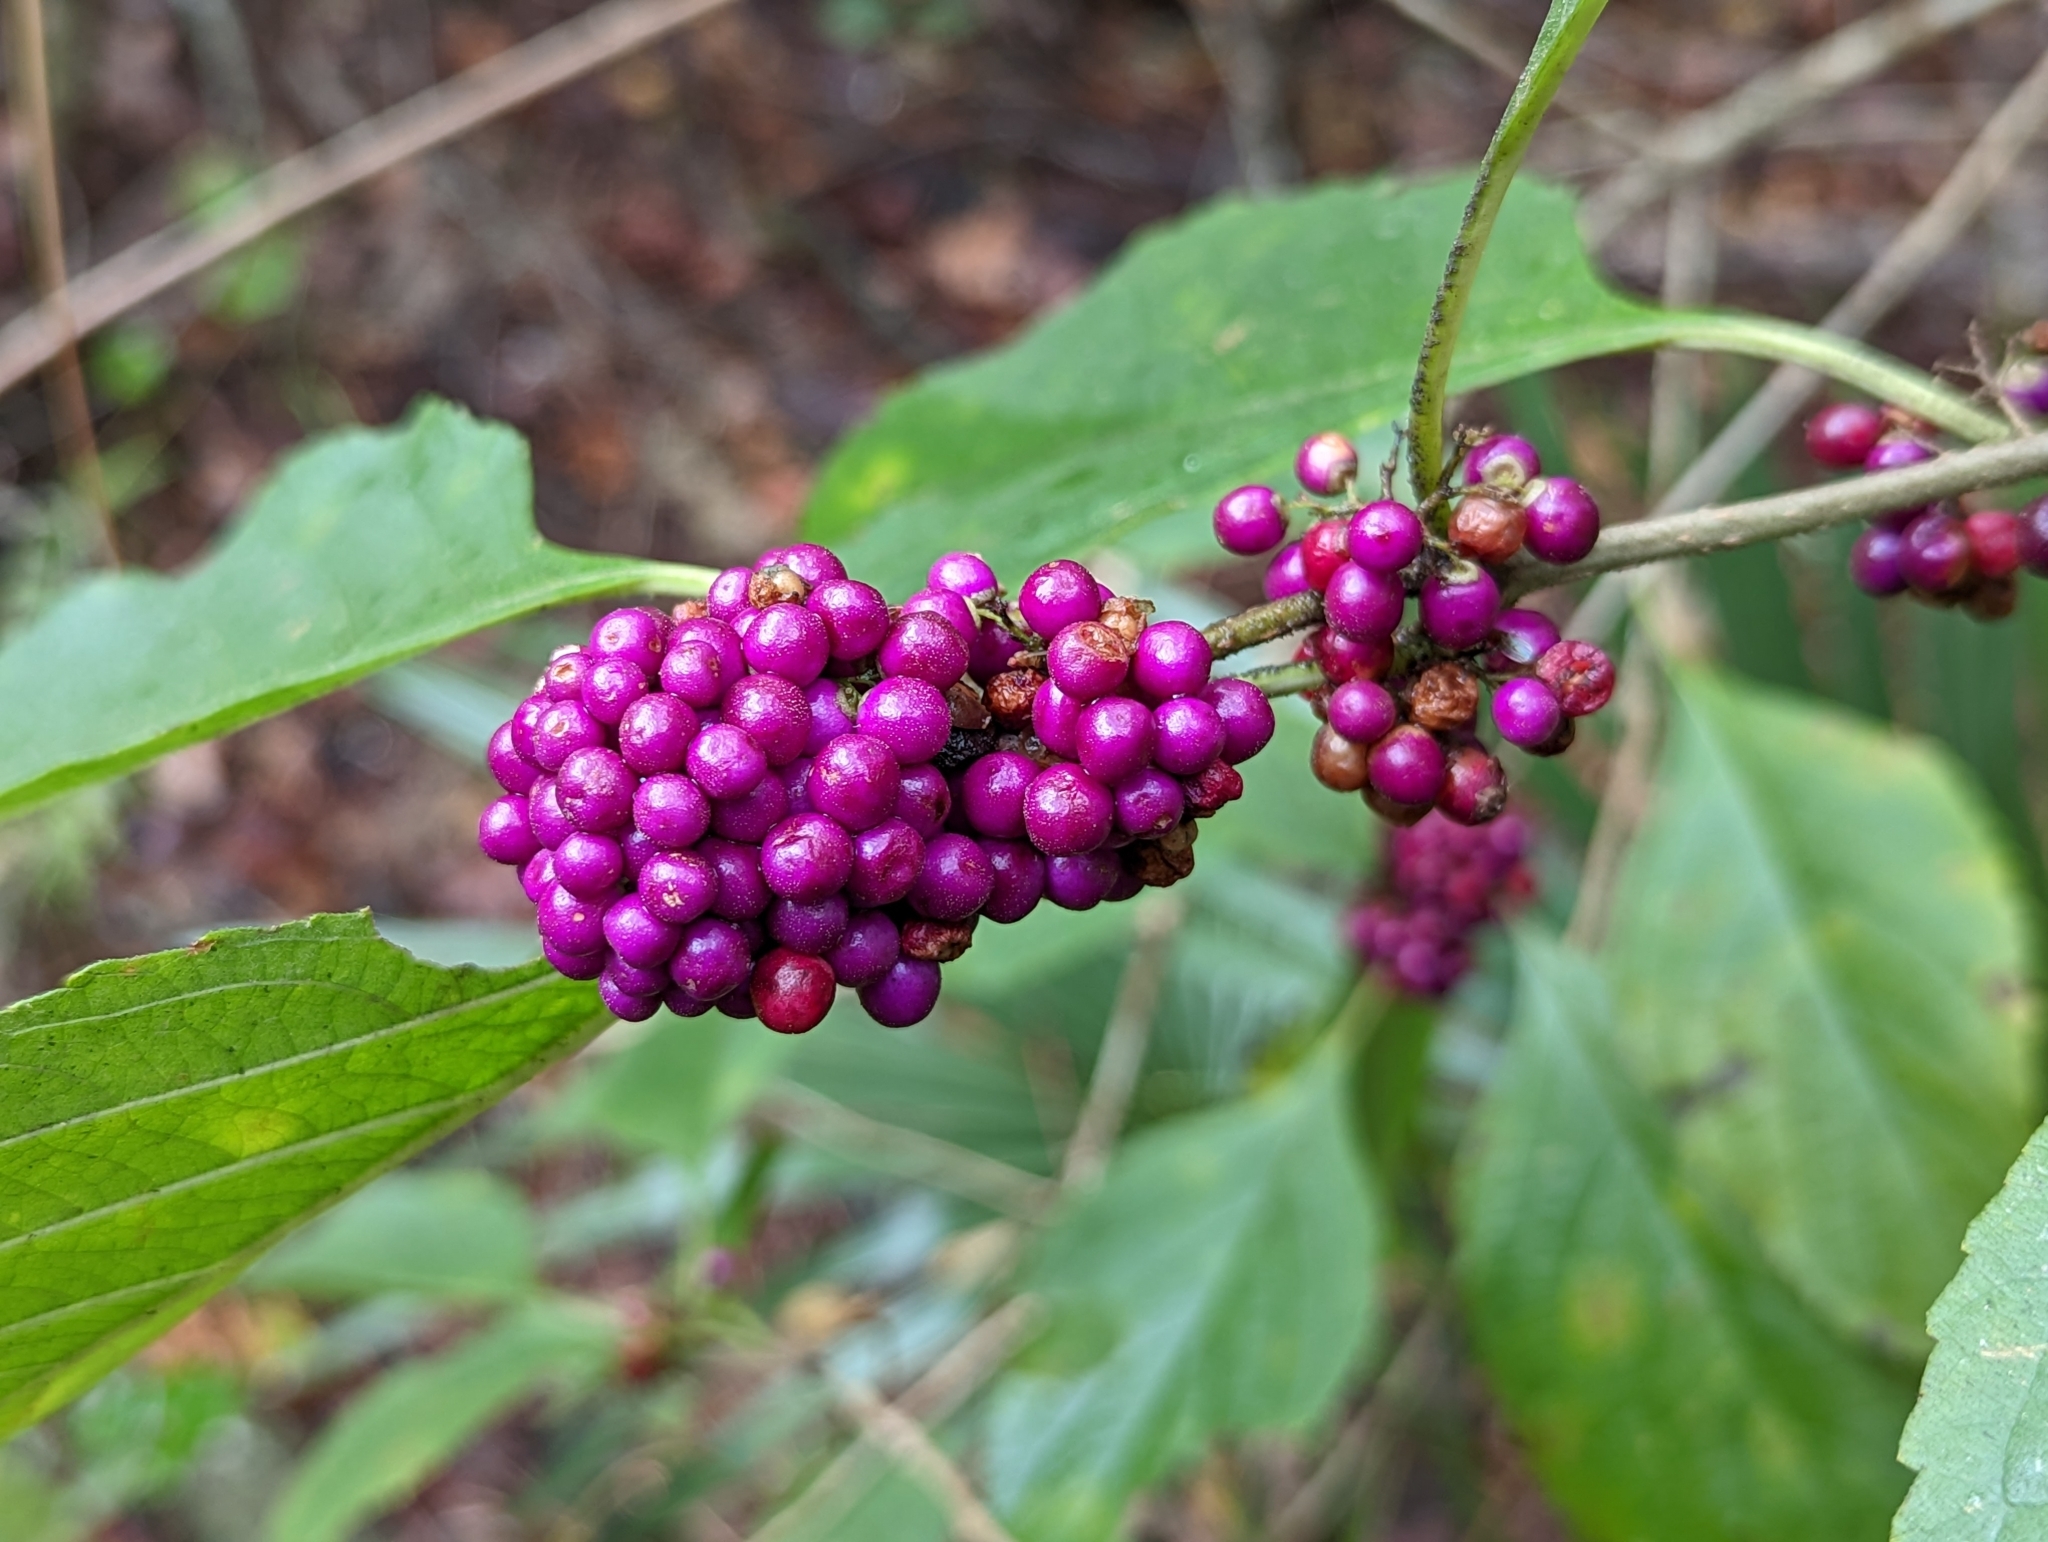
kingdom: Plantae
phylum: Tracheophyta
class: Magnoliopsida
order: Lamiales
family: Lamiaceae
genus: Callicarpa
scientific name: Callicarpa americana
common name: American beautyberry
